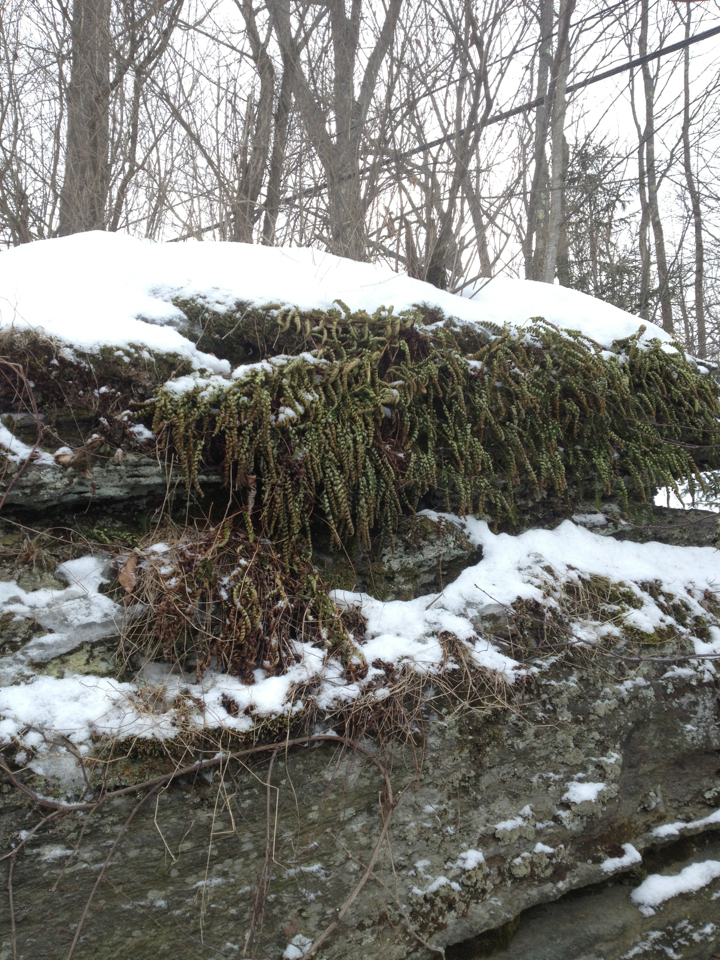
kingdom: Plantae
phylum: Tracheophyta
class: Polypodiopsida
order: Polypodiales
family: Polypodiaceae
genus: Polypodium
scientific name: Polypodium virginianum
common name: American wall fern
